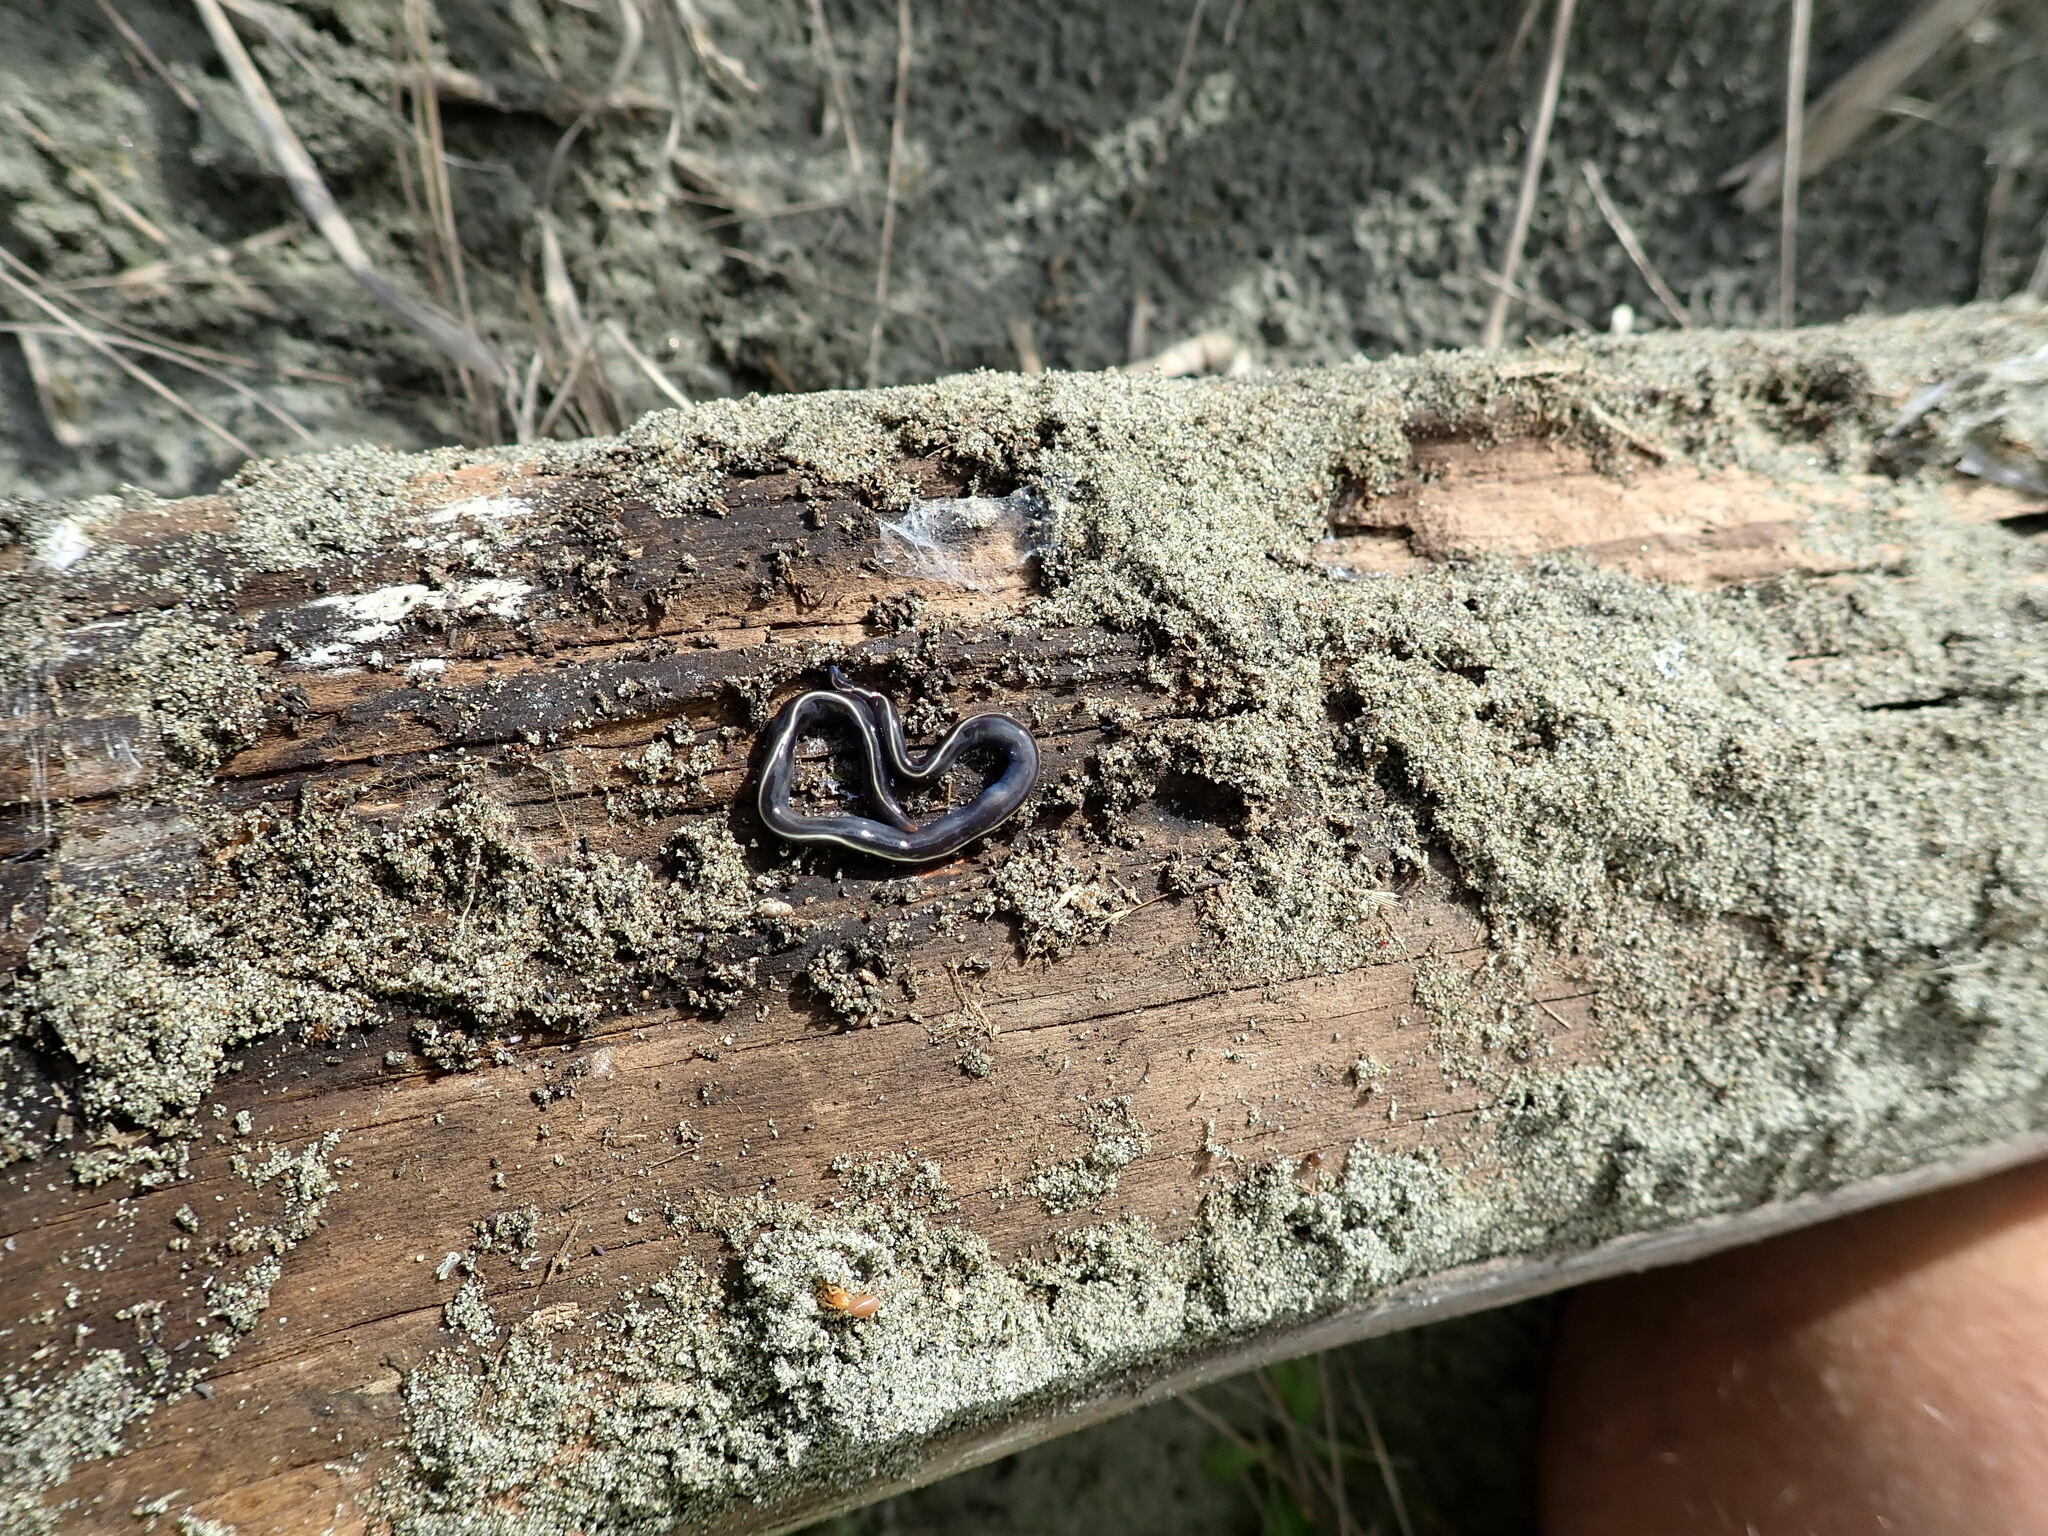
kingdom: Animalia
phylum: Platyhelminthes
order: Tricladida
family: Geoplanidae
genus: Caenoplana
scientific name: Caenoplana coerulea
